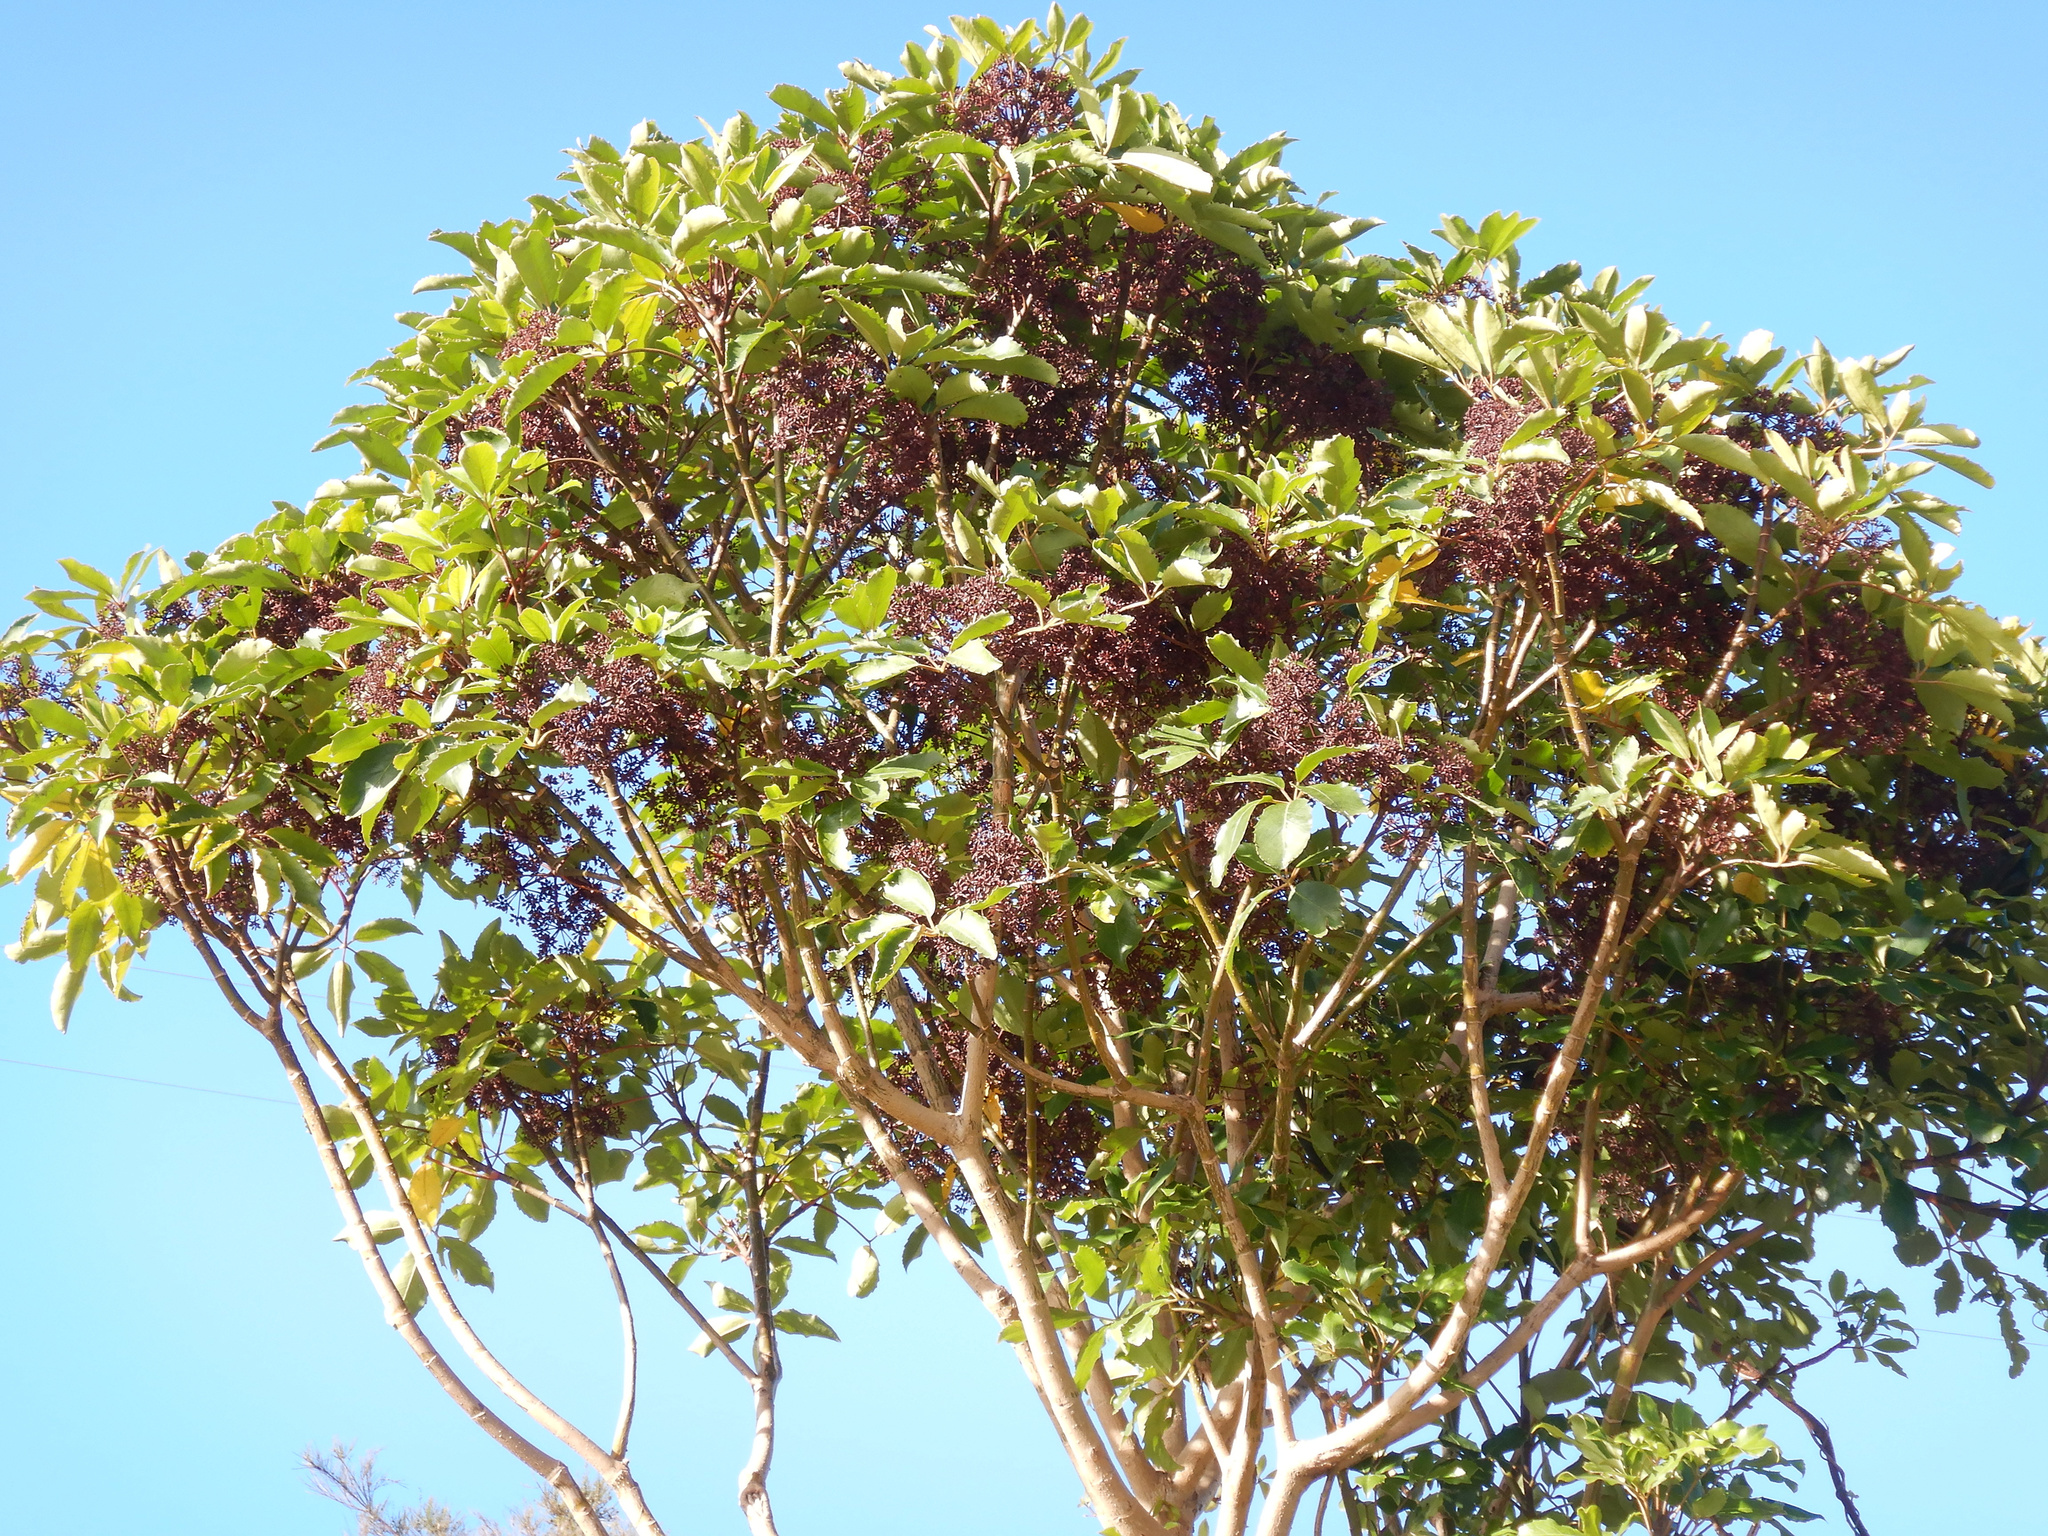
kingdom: Plantae
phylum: Tracheophyta
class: Magnoliopsida
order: Apiales
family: Araliaceae
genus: Neopanax
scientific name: Neopanax arboreus
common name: Five-fingers
